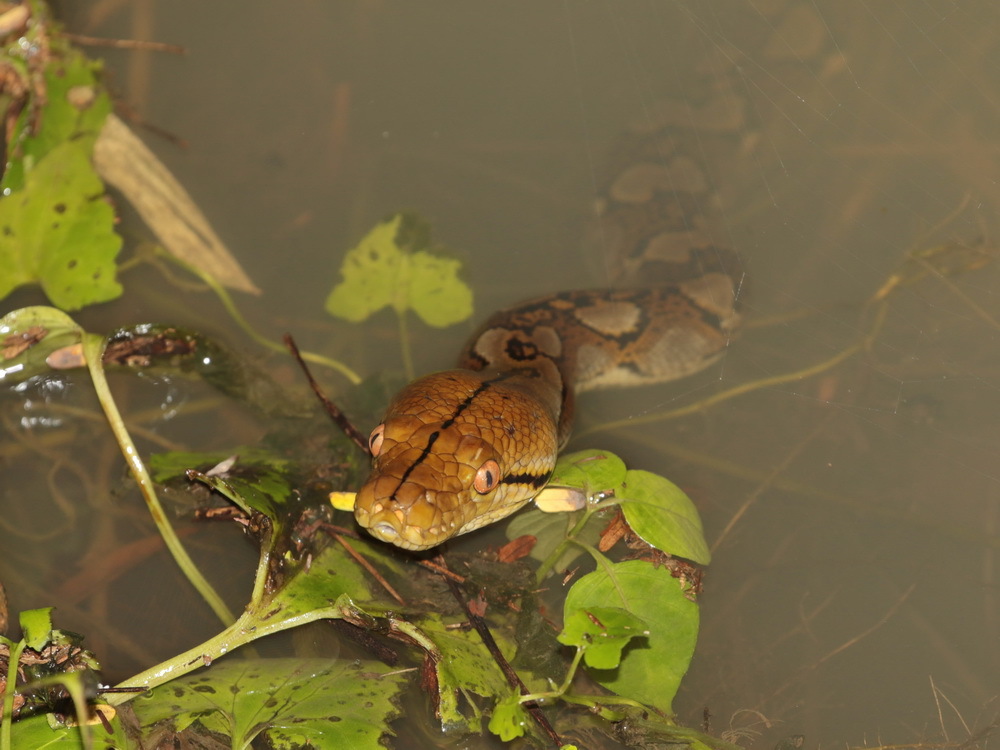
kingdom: Animalia
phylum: Chordata
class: Squamata
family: Pythonidae
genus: Malayopython
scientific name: Malayopython reticulatus
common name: Reticulated python
